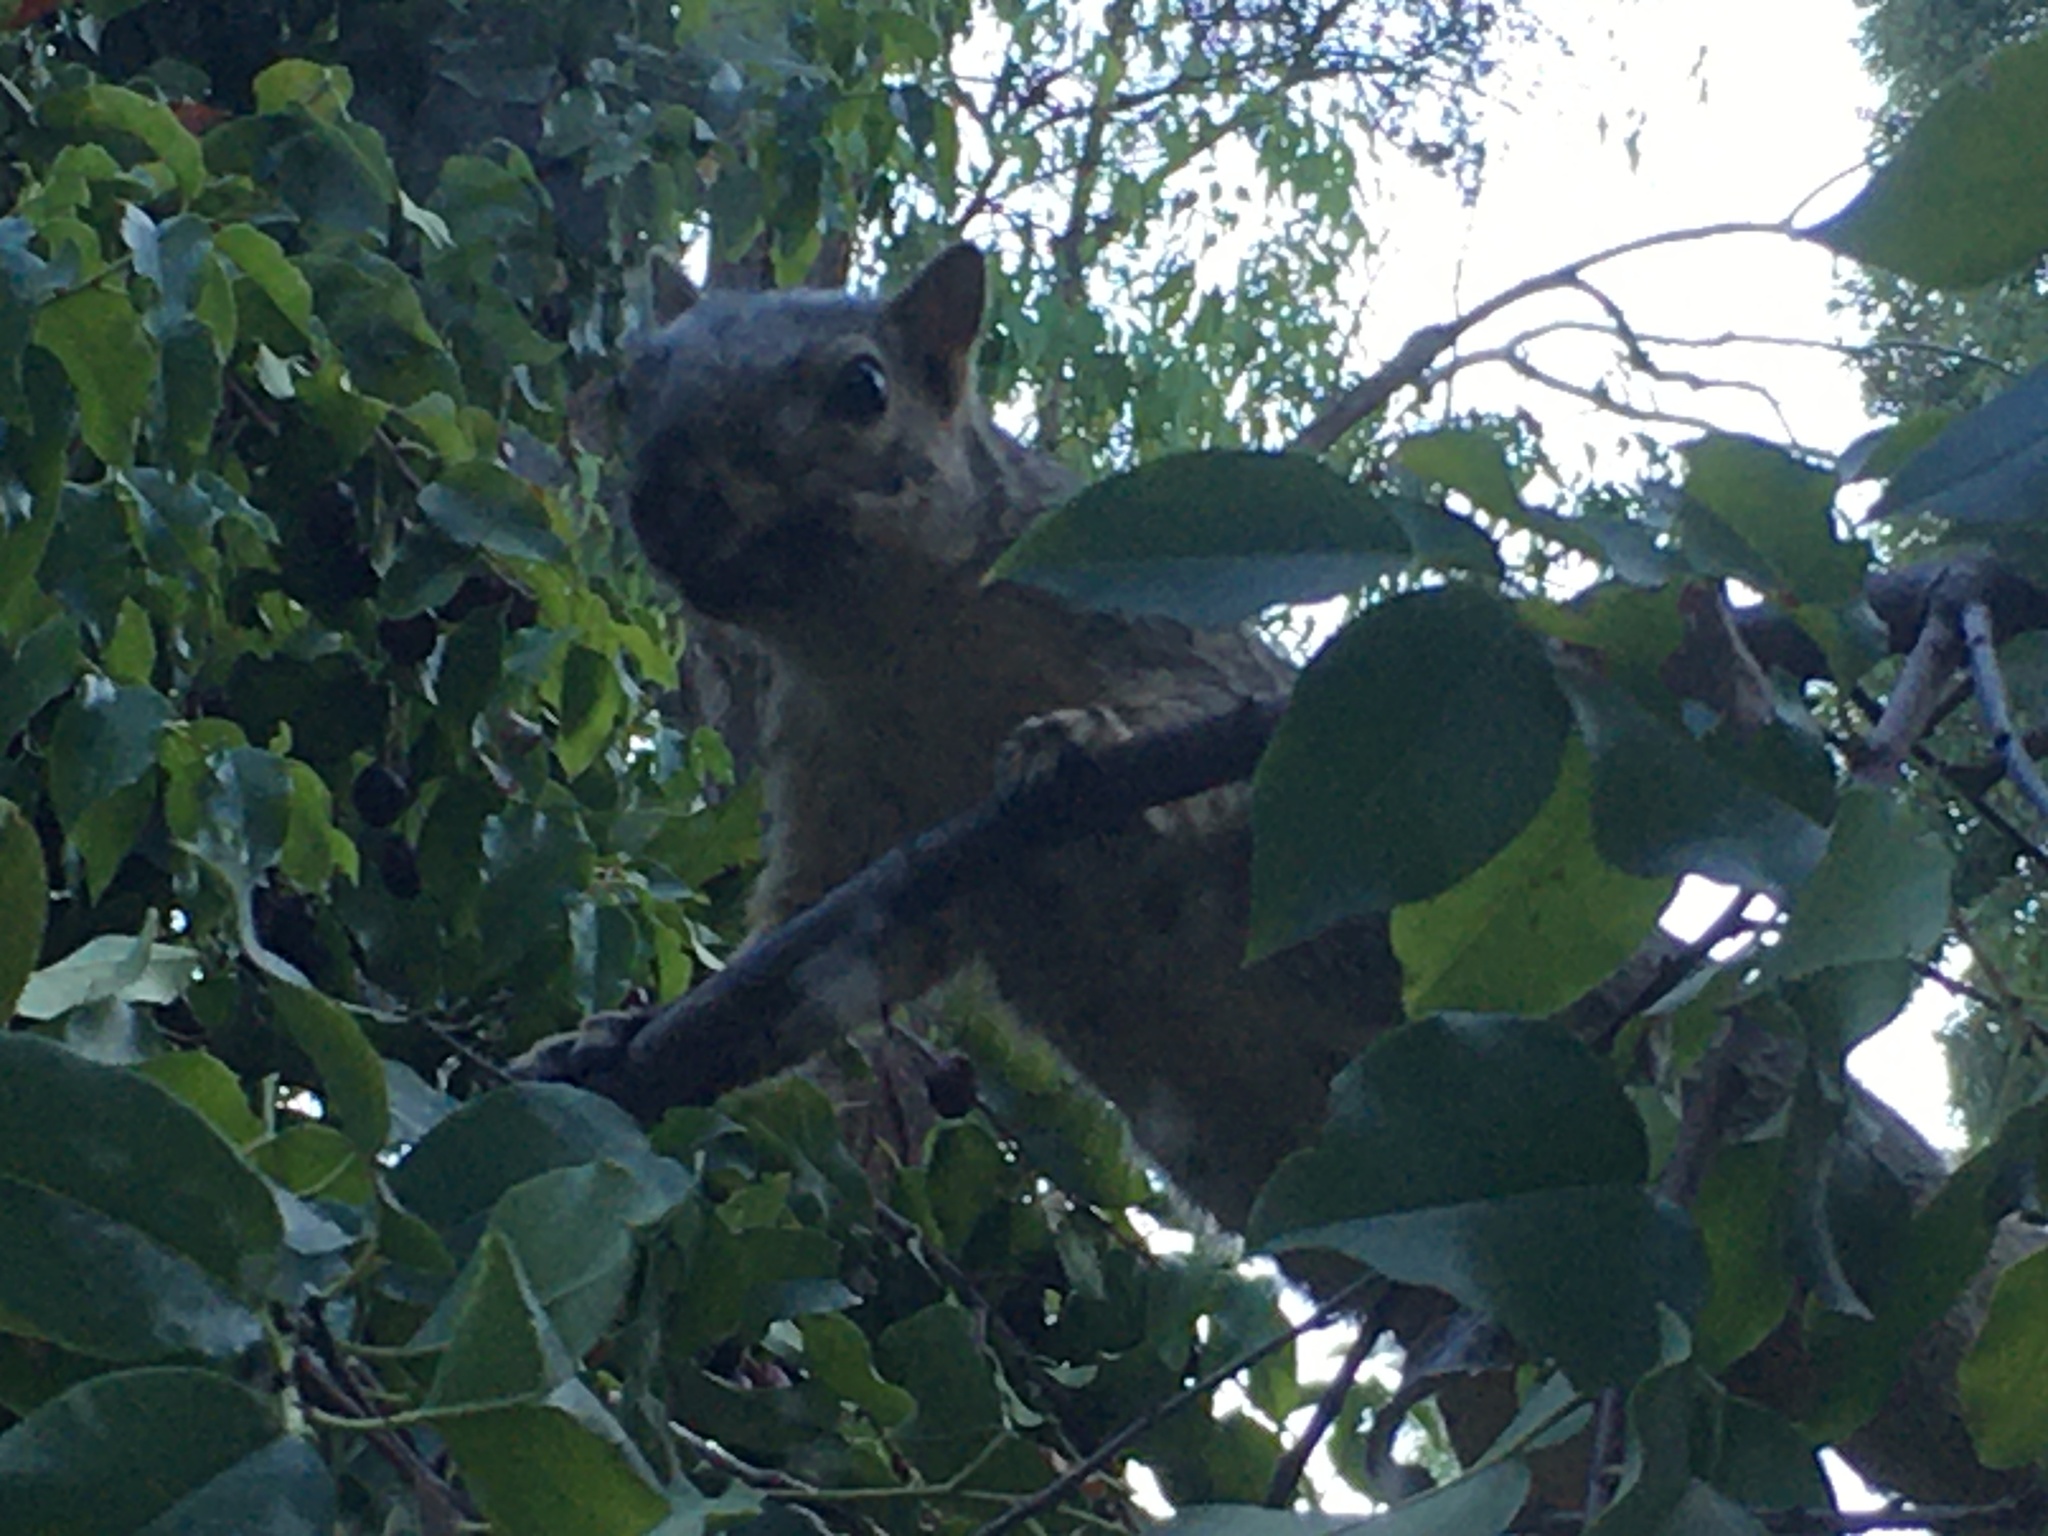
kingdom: Animalia
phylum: Chordata
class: Mammalia
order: Rodentia
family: Sciuridae
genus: Sciurus
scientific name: Sciurus niger
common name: Fox squirrel
